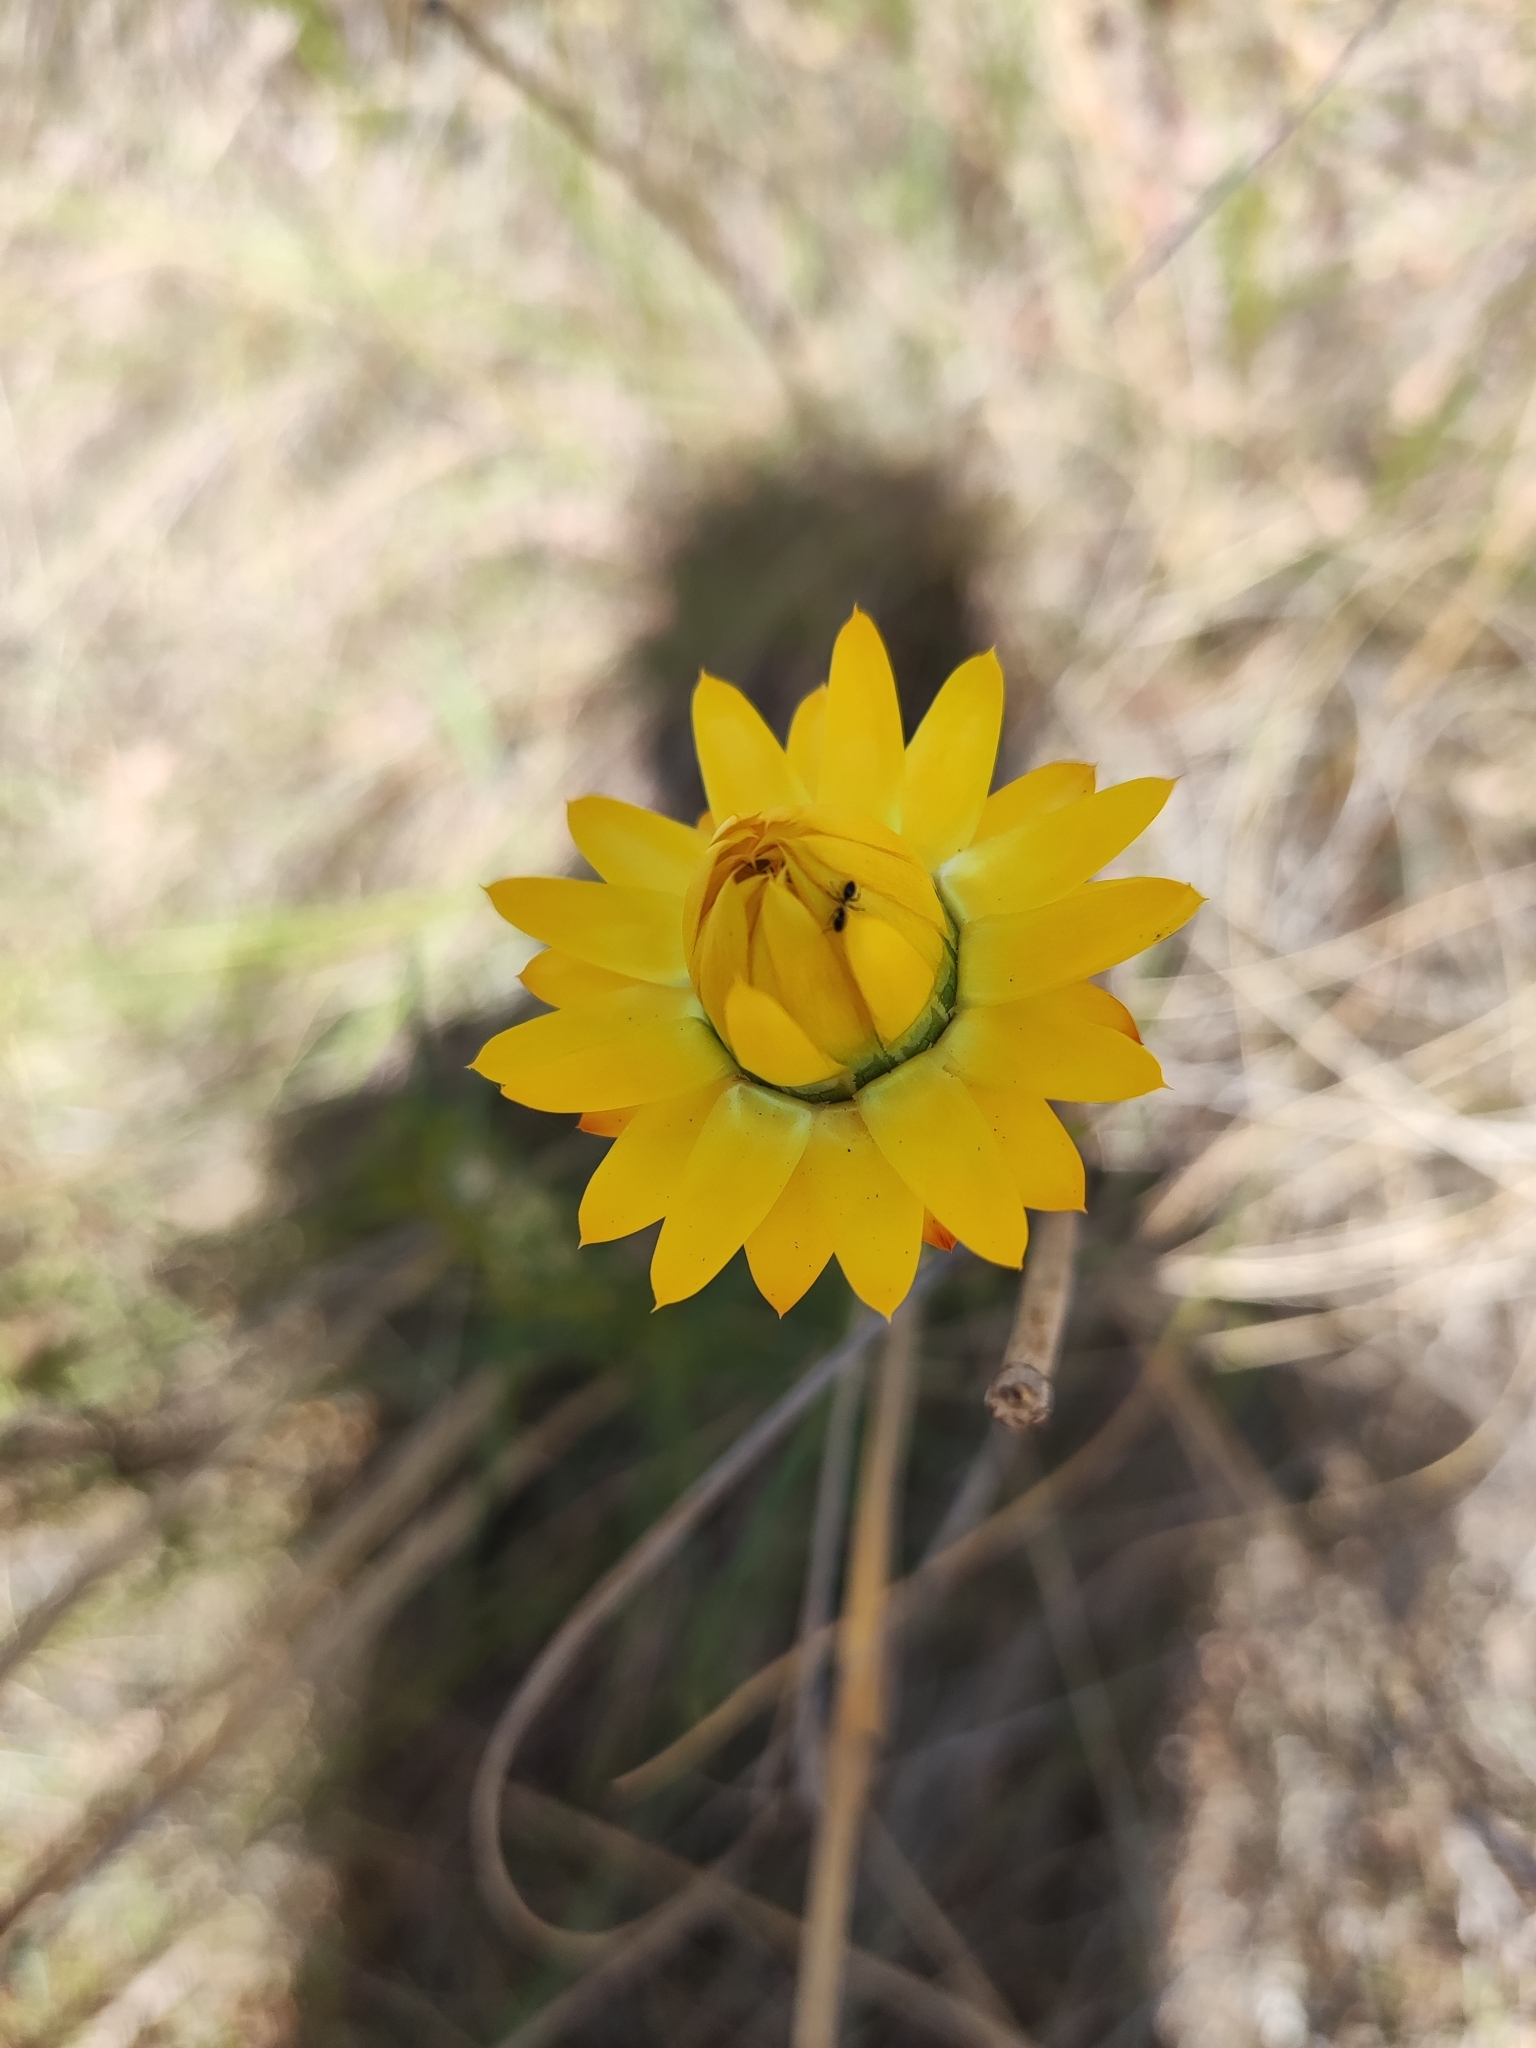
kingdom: Plantae
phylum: Tracheophyta
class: Magnoliopsida
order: Asterales
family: Asteraceae
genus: Xerochrysum
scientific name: Xerochrysum viscosum
